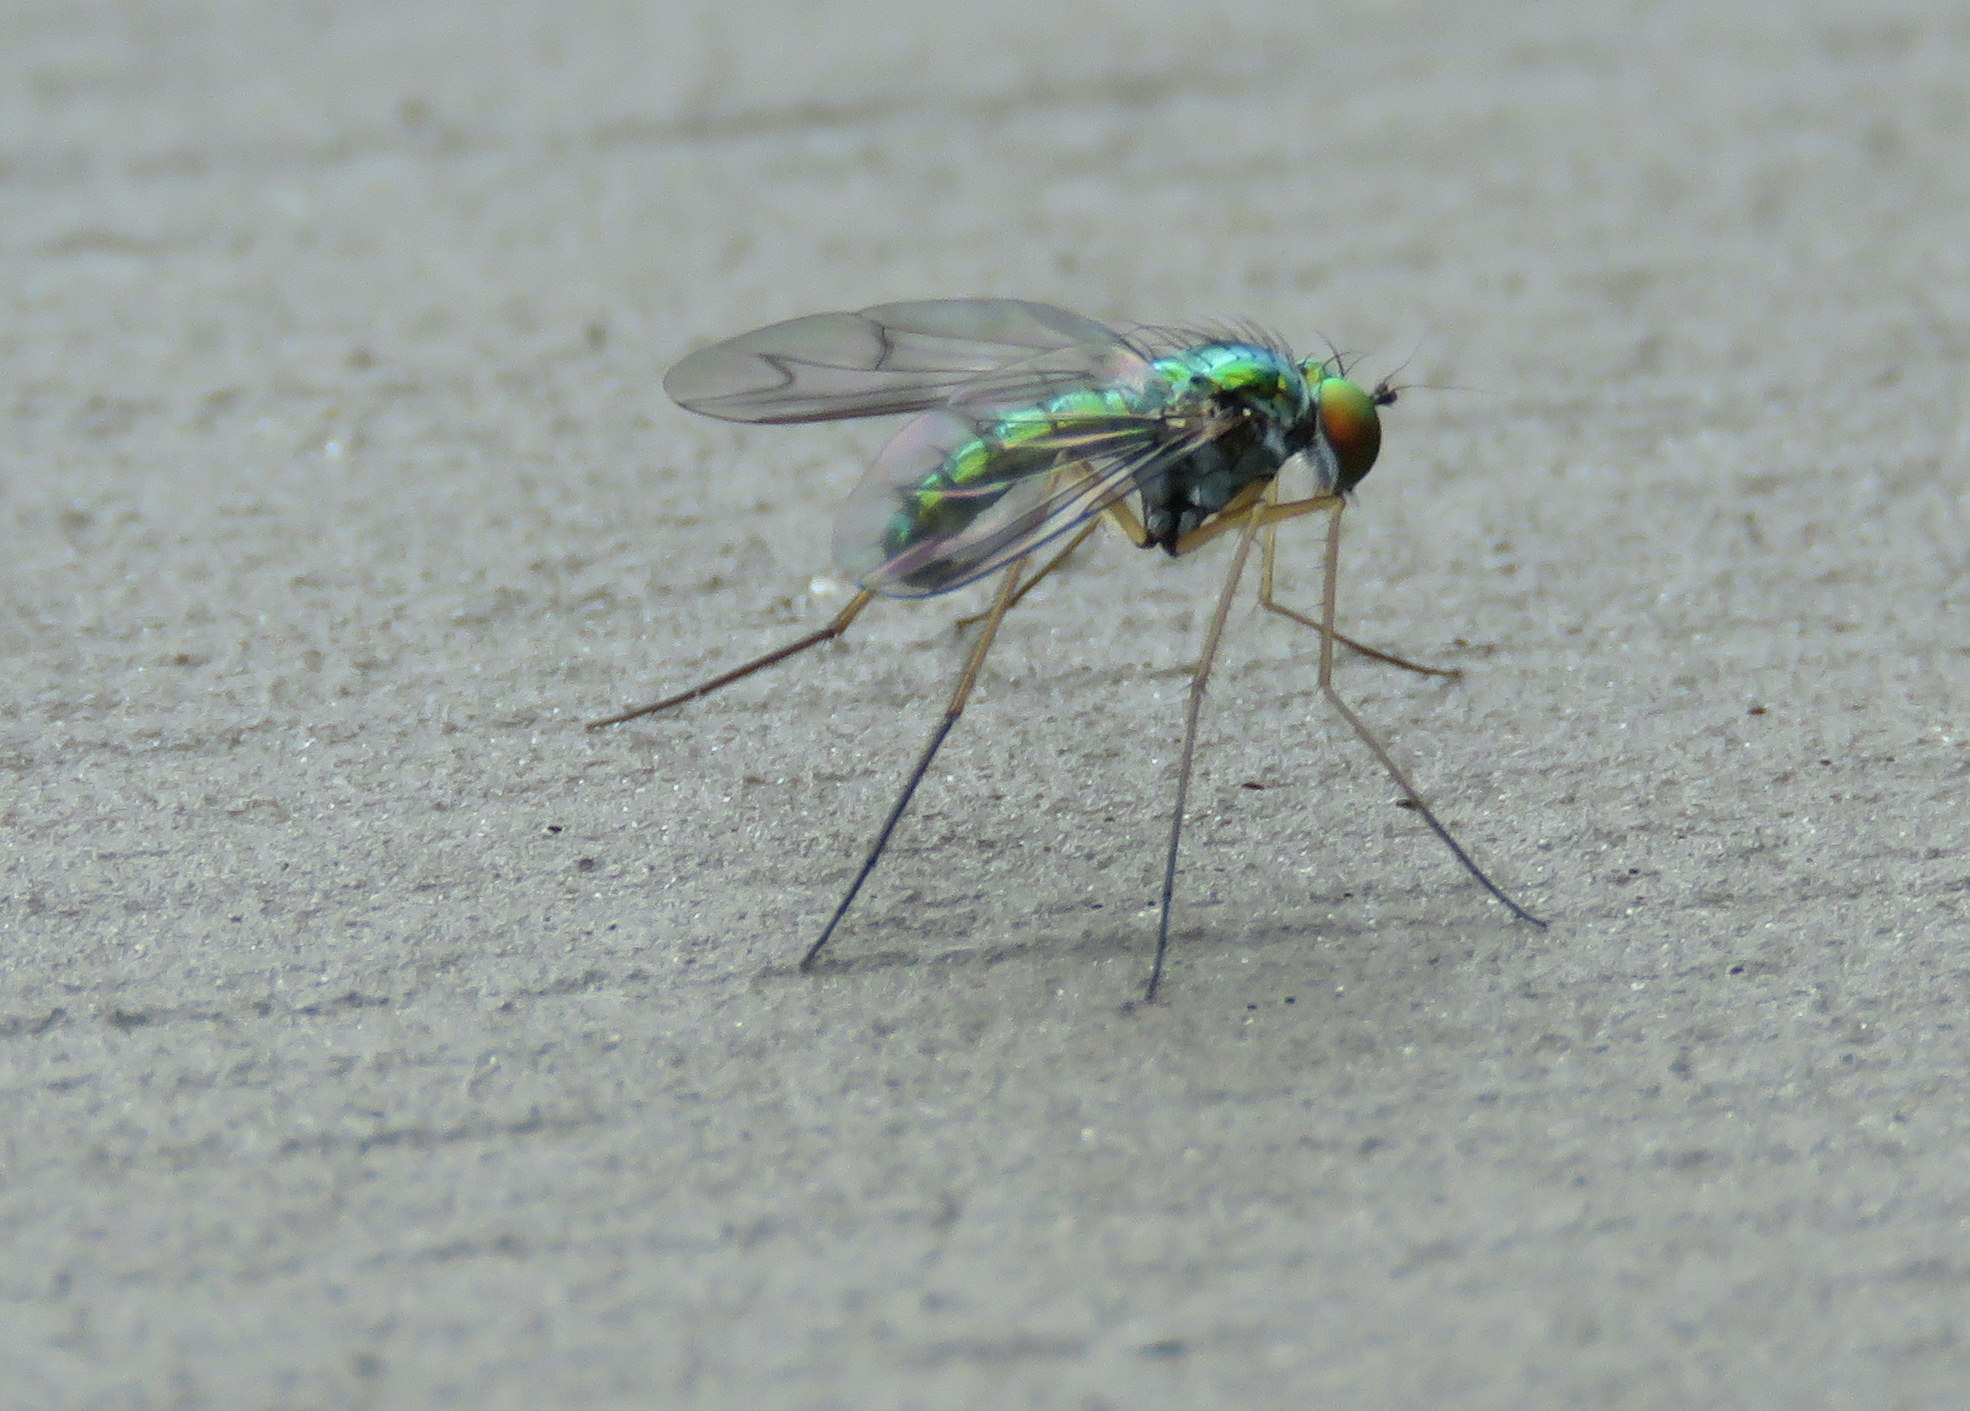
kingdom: Animalia
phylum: Arthropoda
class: Insecta
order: Diptera
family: Dolichopodidae
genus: Condylostylus
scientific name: Condylostylus
